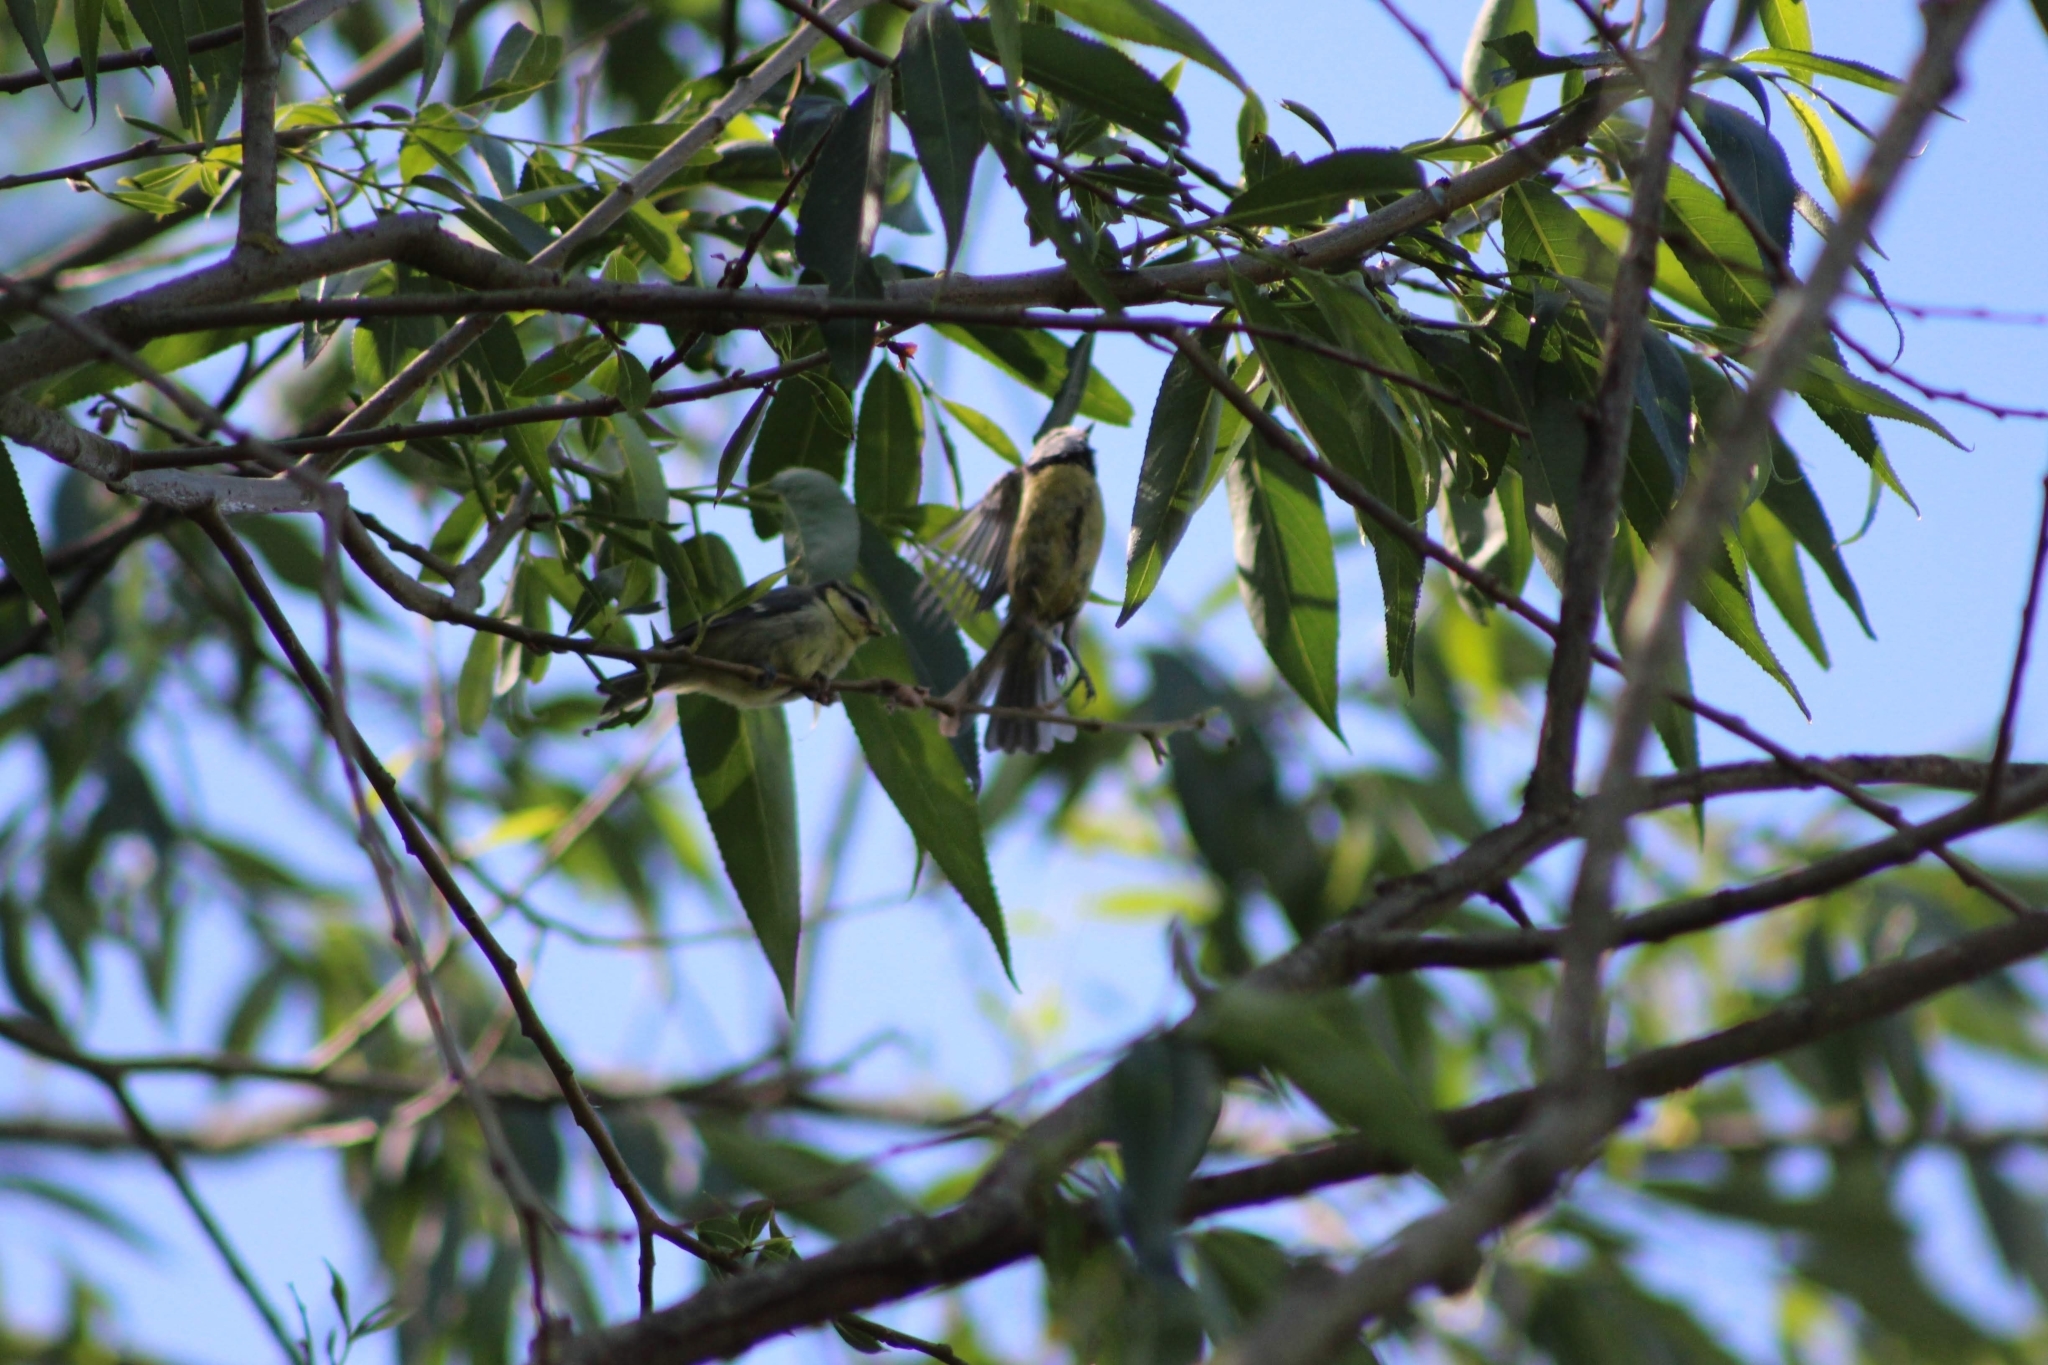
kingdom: Animalia
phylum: Chordata
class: Aves
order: Passeriformes
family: Paridae
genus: Cyanistes
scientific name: Cyanistes caeruleus
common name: Eurasian blue tit
